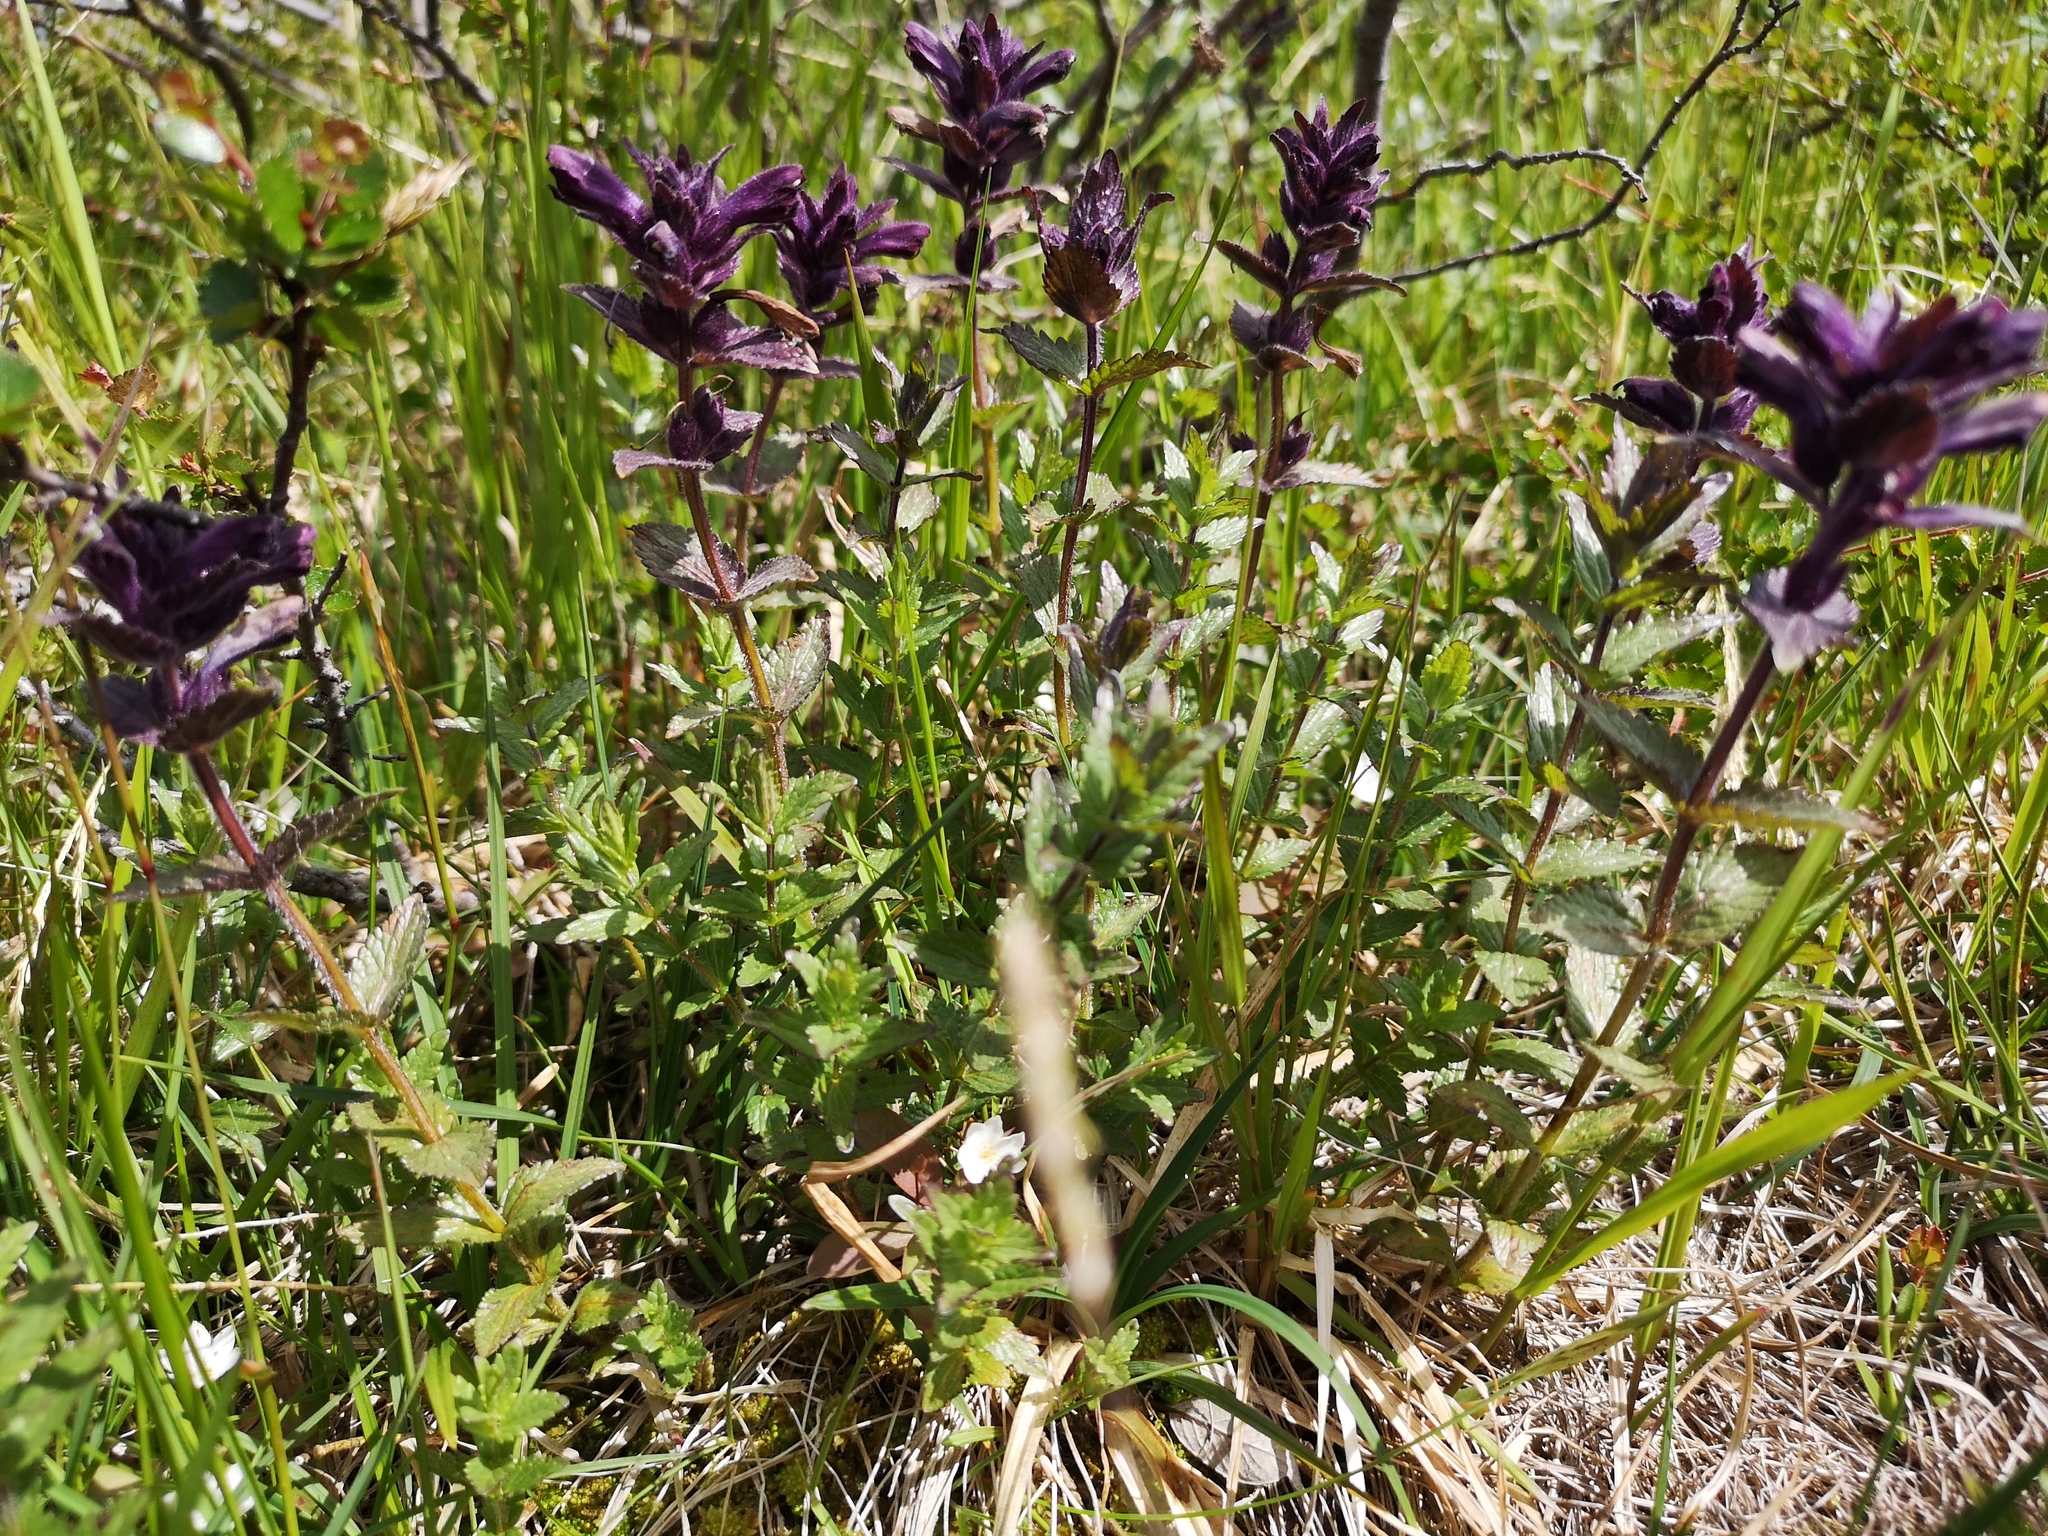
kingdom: Plantae
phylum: Tracheophyta
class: Magnoliopsida
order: Lamiales
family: Orobanchaceae
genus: Bartsia
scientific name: Bartsia alpina
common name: Alpine bartsia
